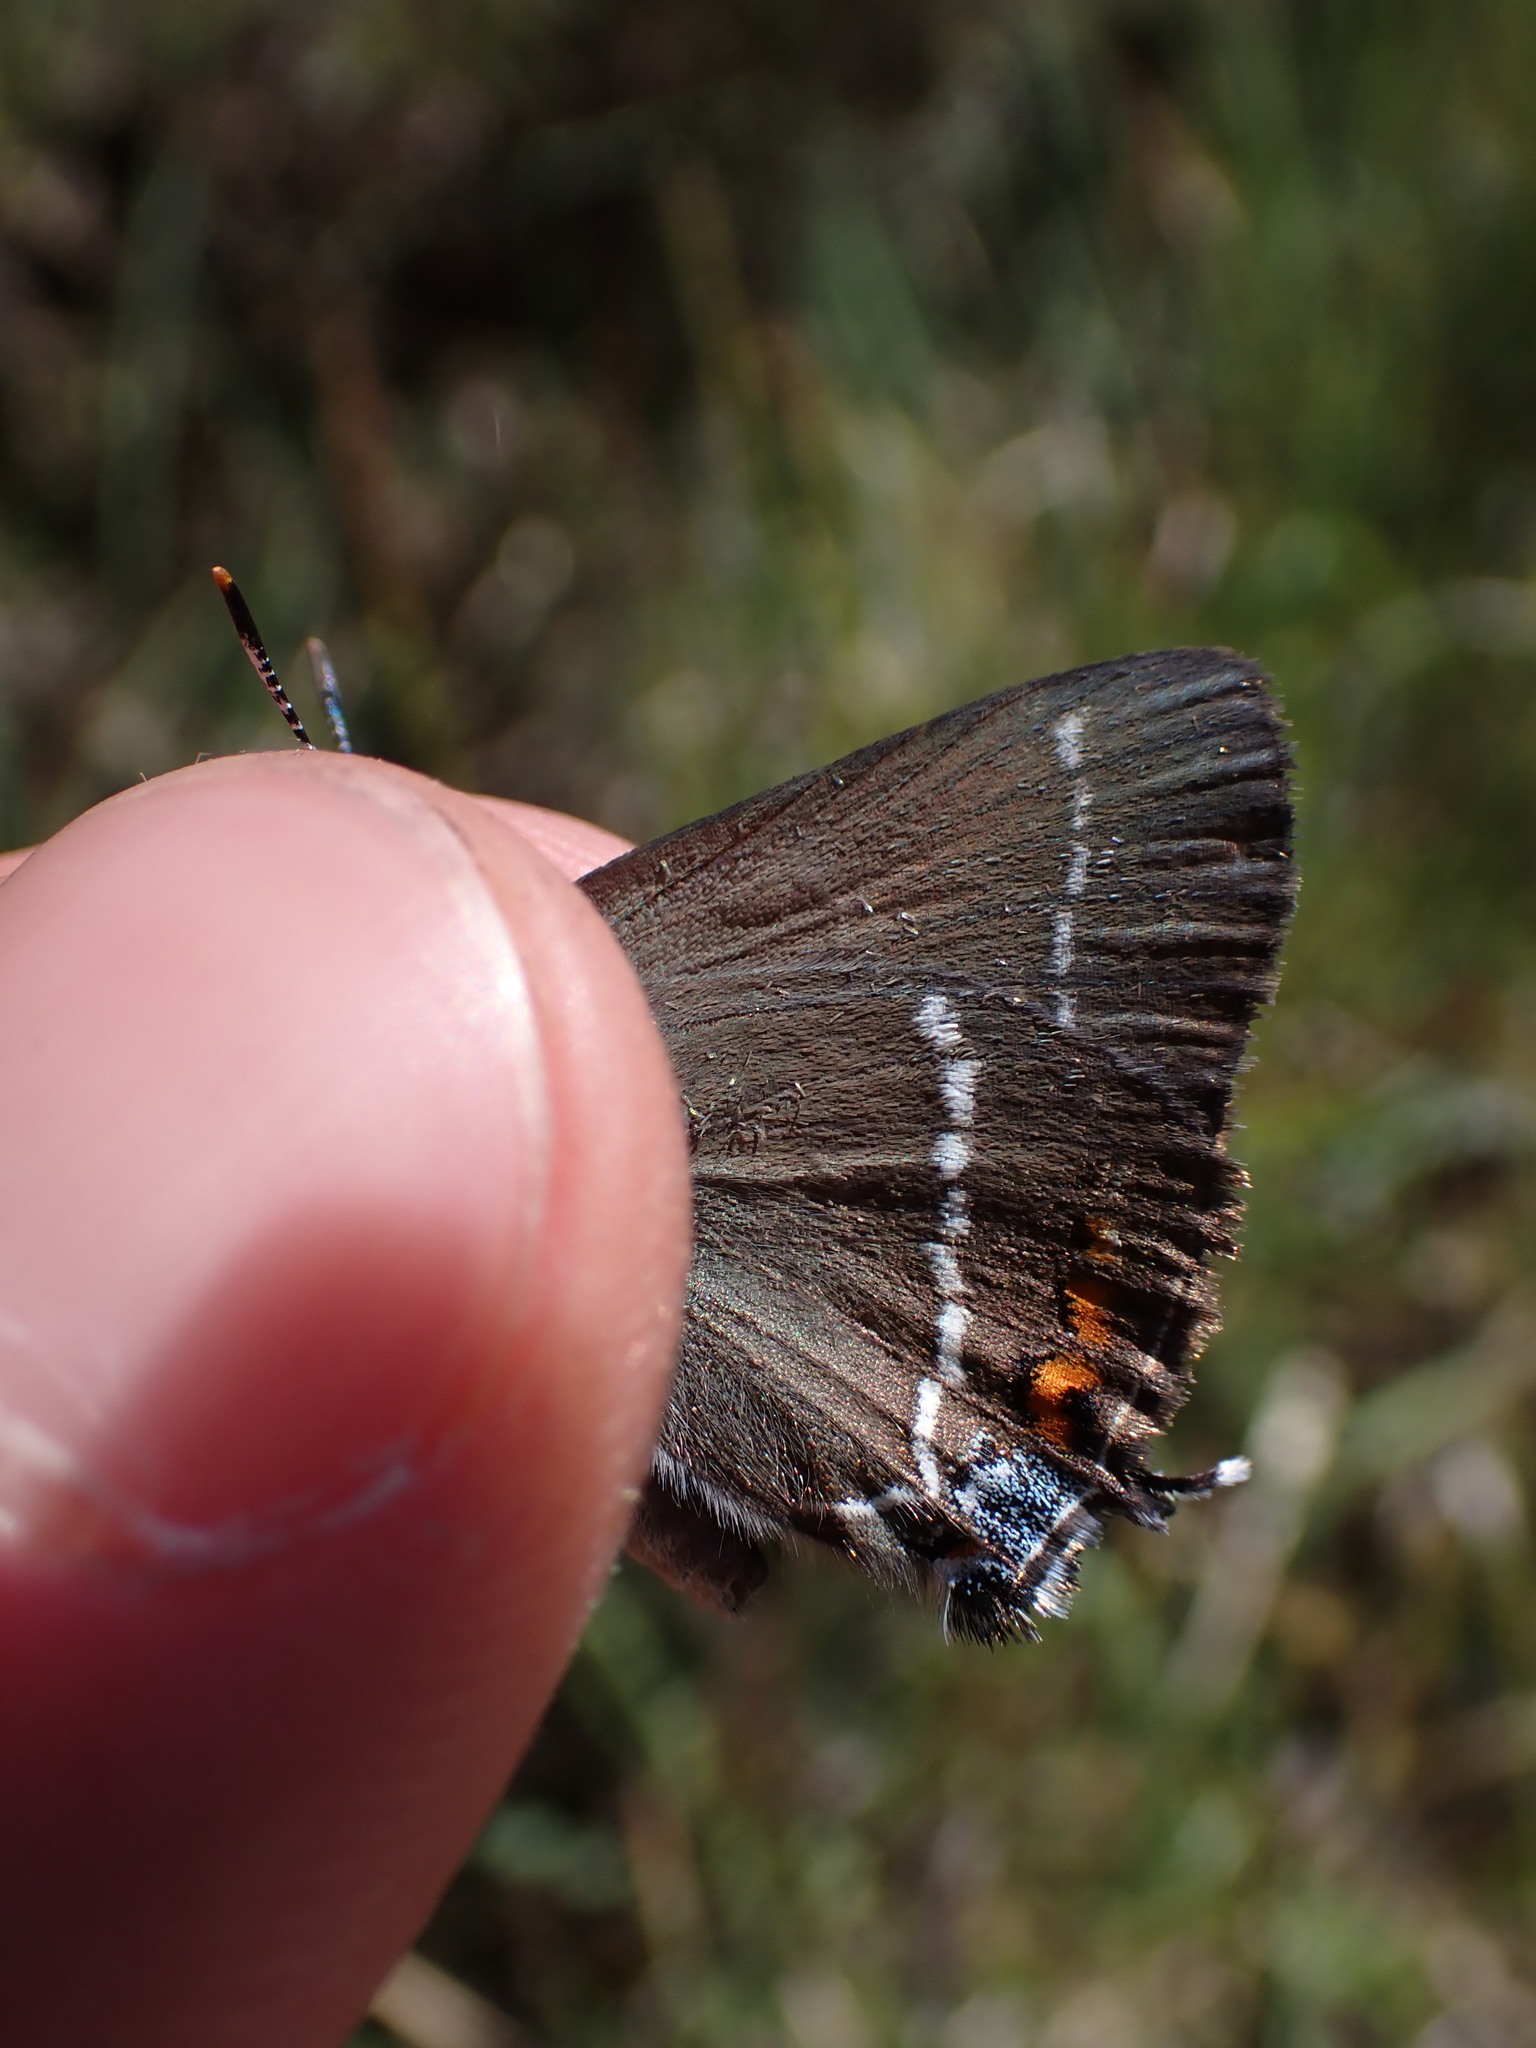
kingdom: Animalia
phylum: Arthropoda
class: Insecta
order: Lepidoptera
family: Lycaenidae
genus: Tuttiola
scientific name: Tuttiola spini
